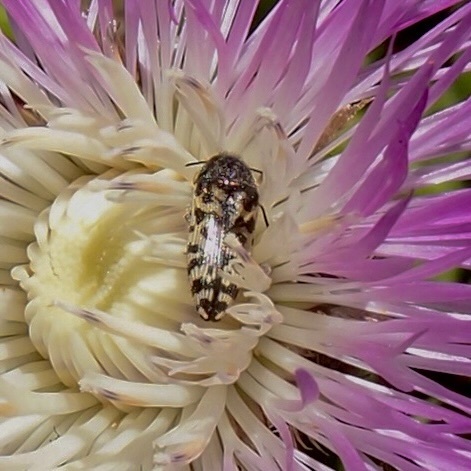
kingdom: Animalia
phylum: Arthropoda
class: Insecta
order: Coleoptera
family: Buprestidae
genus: Acmaeodera
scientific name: Acmaeodera decipiens
